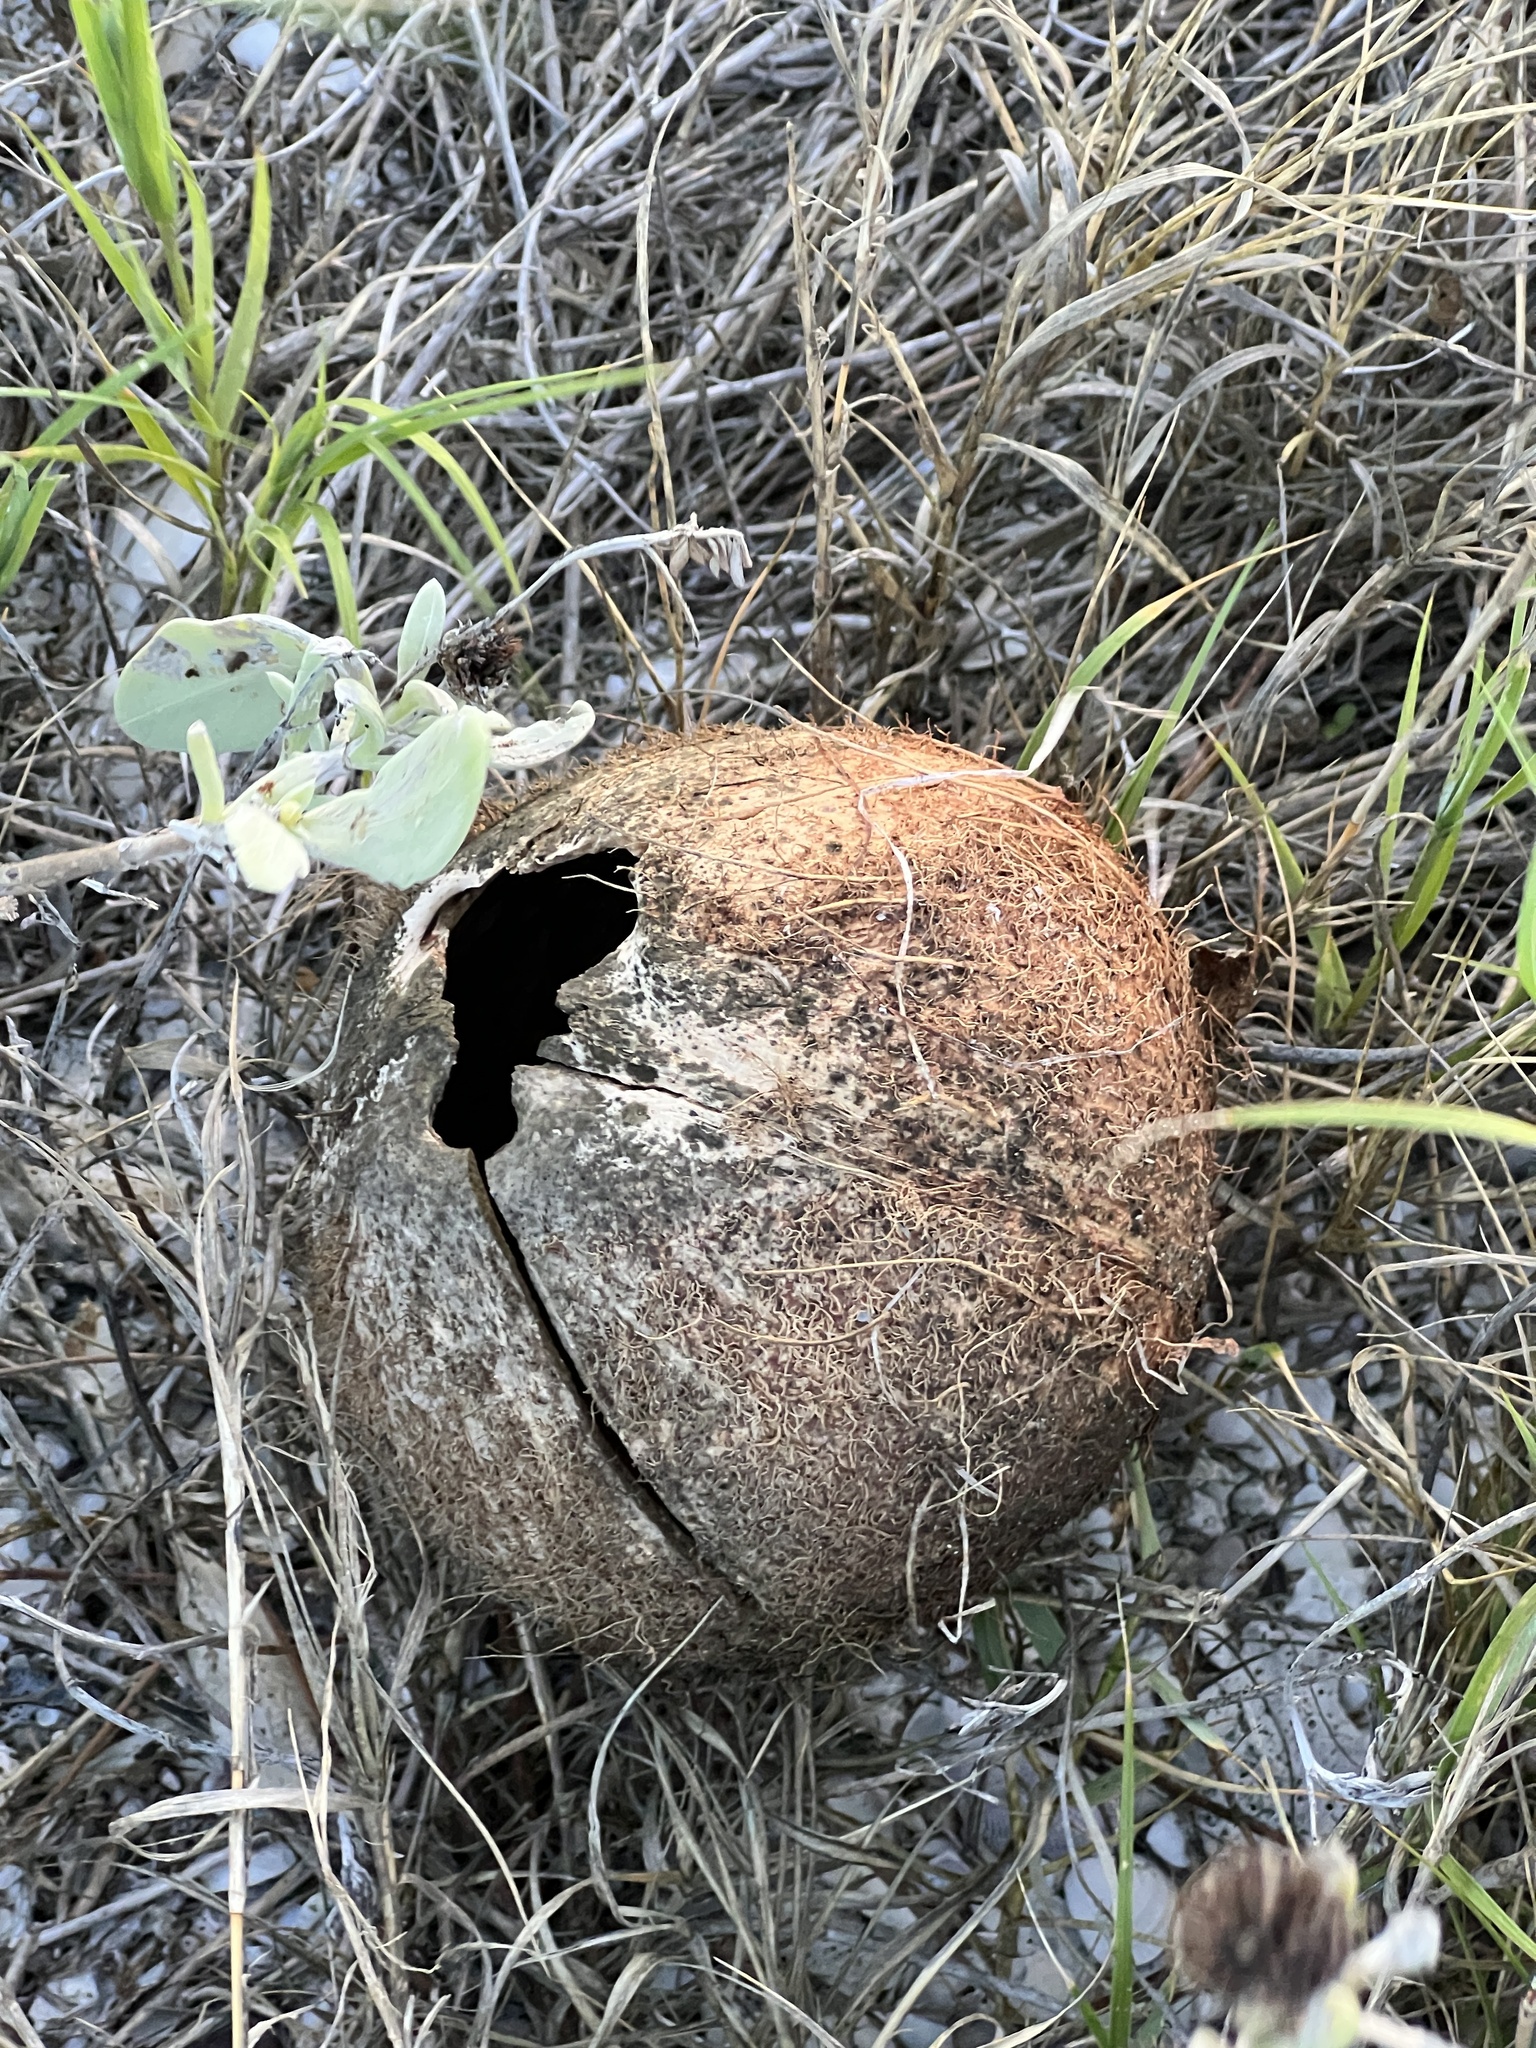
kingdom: Plantae
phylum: Tracheophyta
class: Liliopsida
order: Arecales
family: Arecaceae
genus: Cocos
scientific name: Cocos nucifera
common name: Coconut palm
